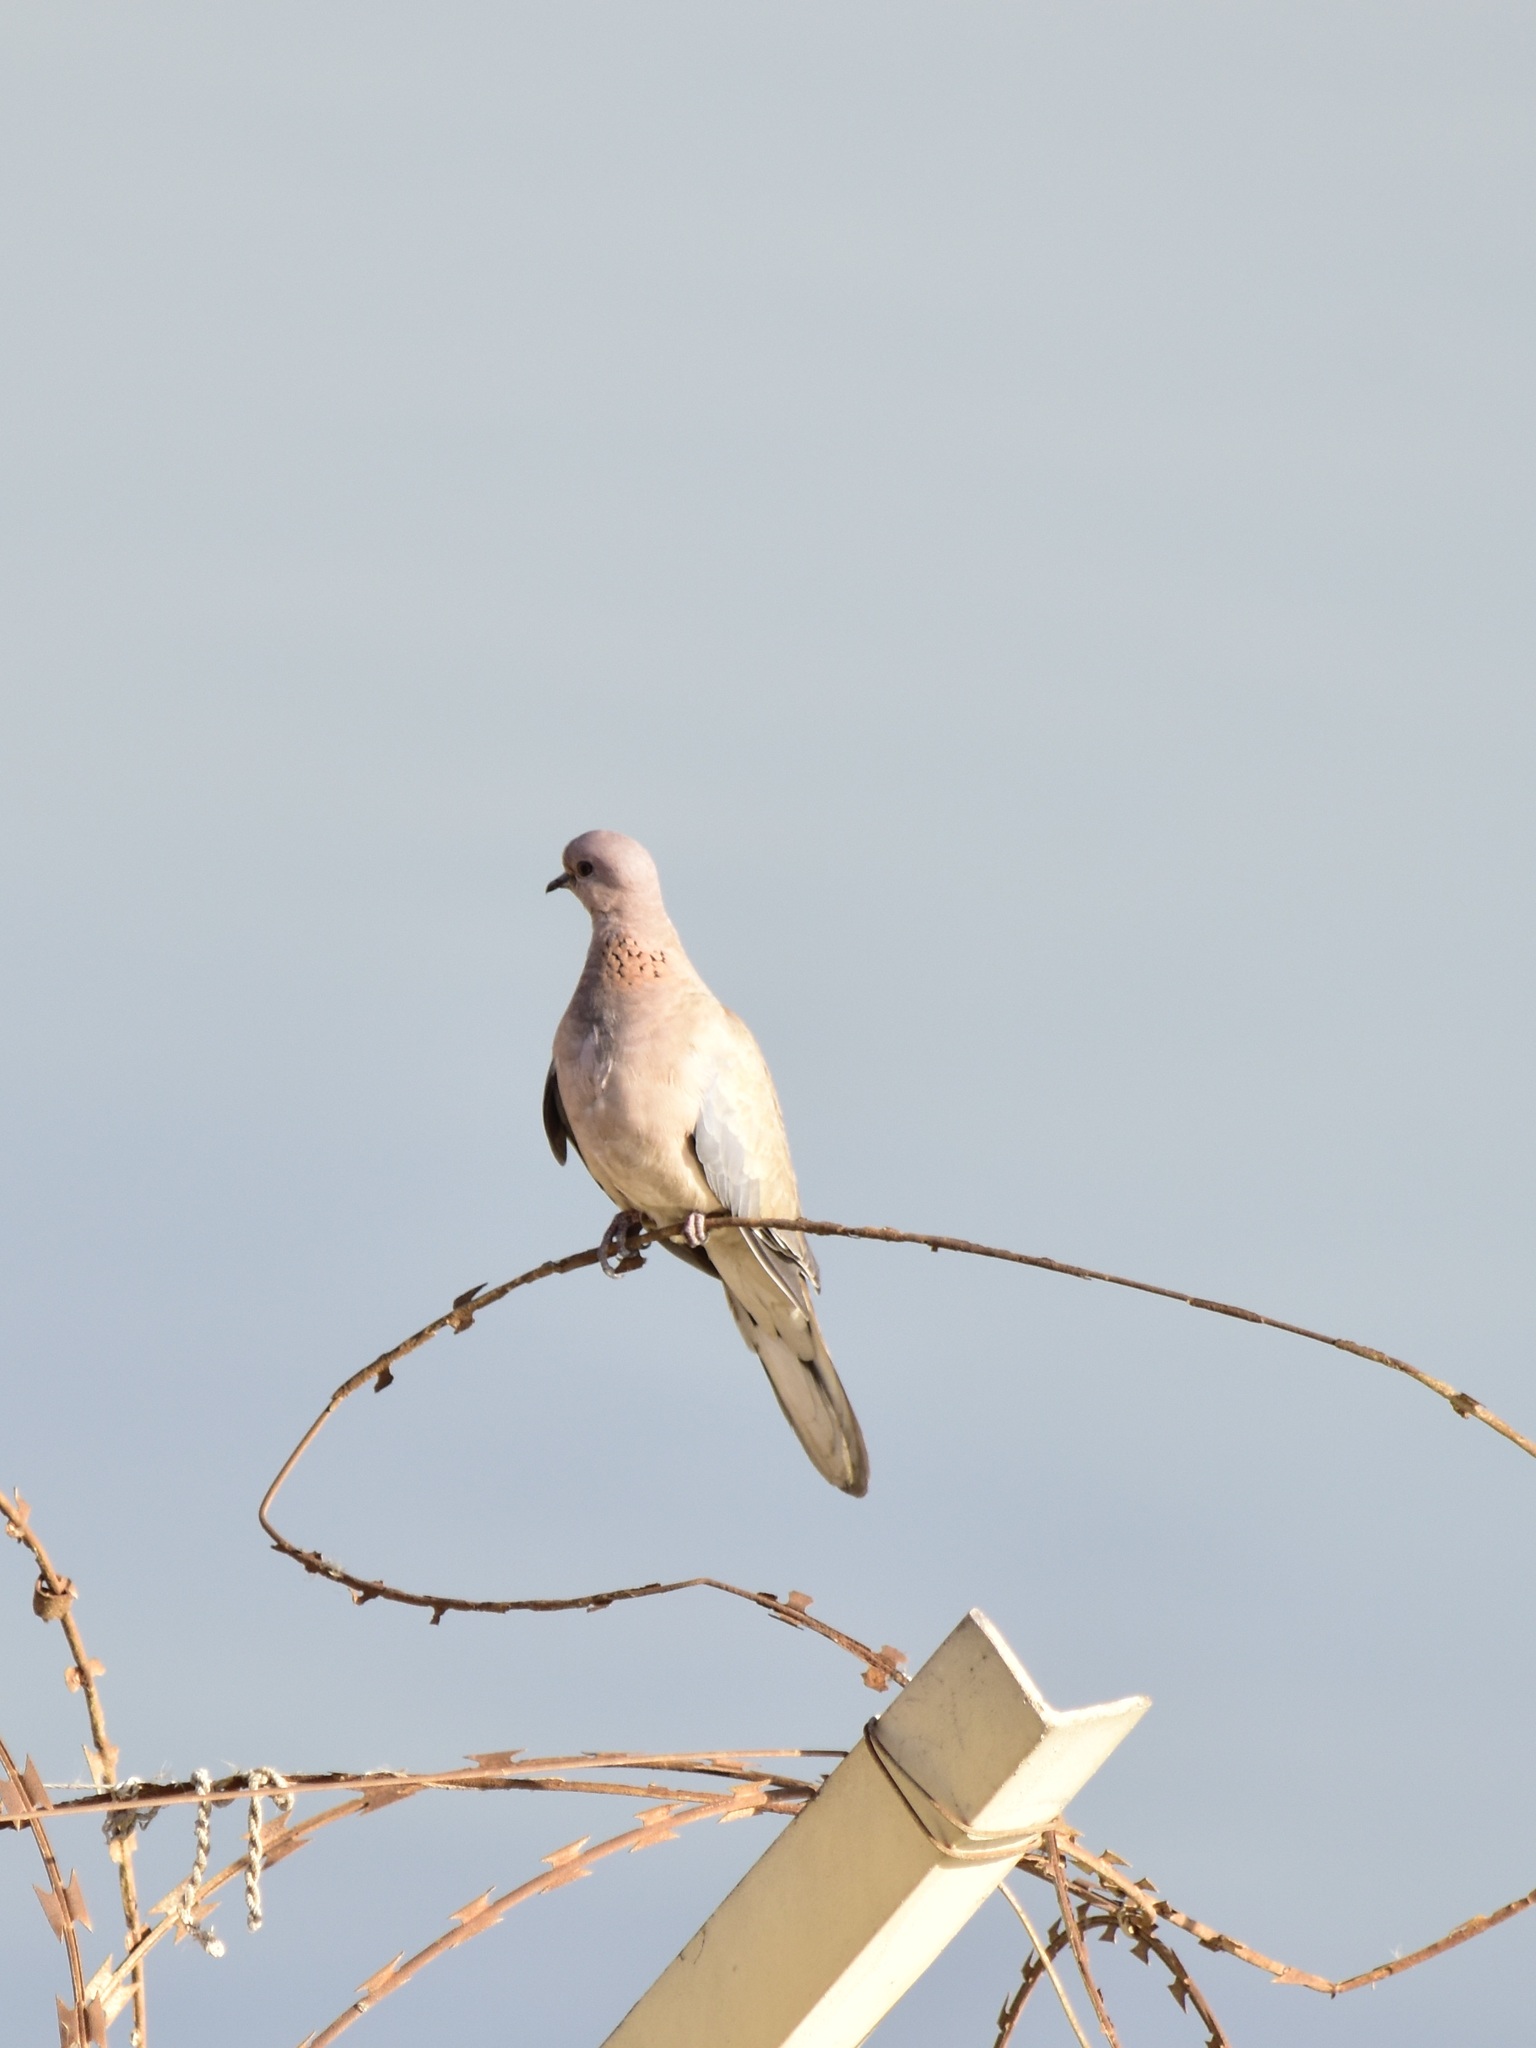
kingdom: Animalia
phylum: Chordata
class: Aves
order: Columbiformes
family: Columbidae
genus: Spilopelia
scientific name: Spilopelia senegalensis
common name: Laughing dove
